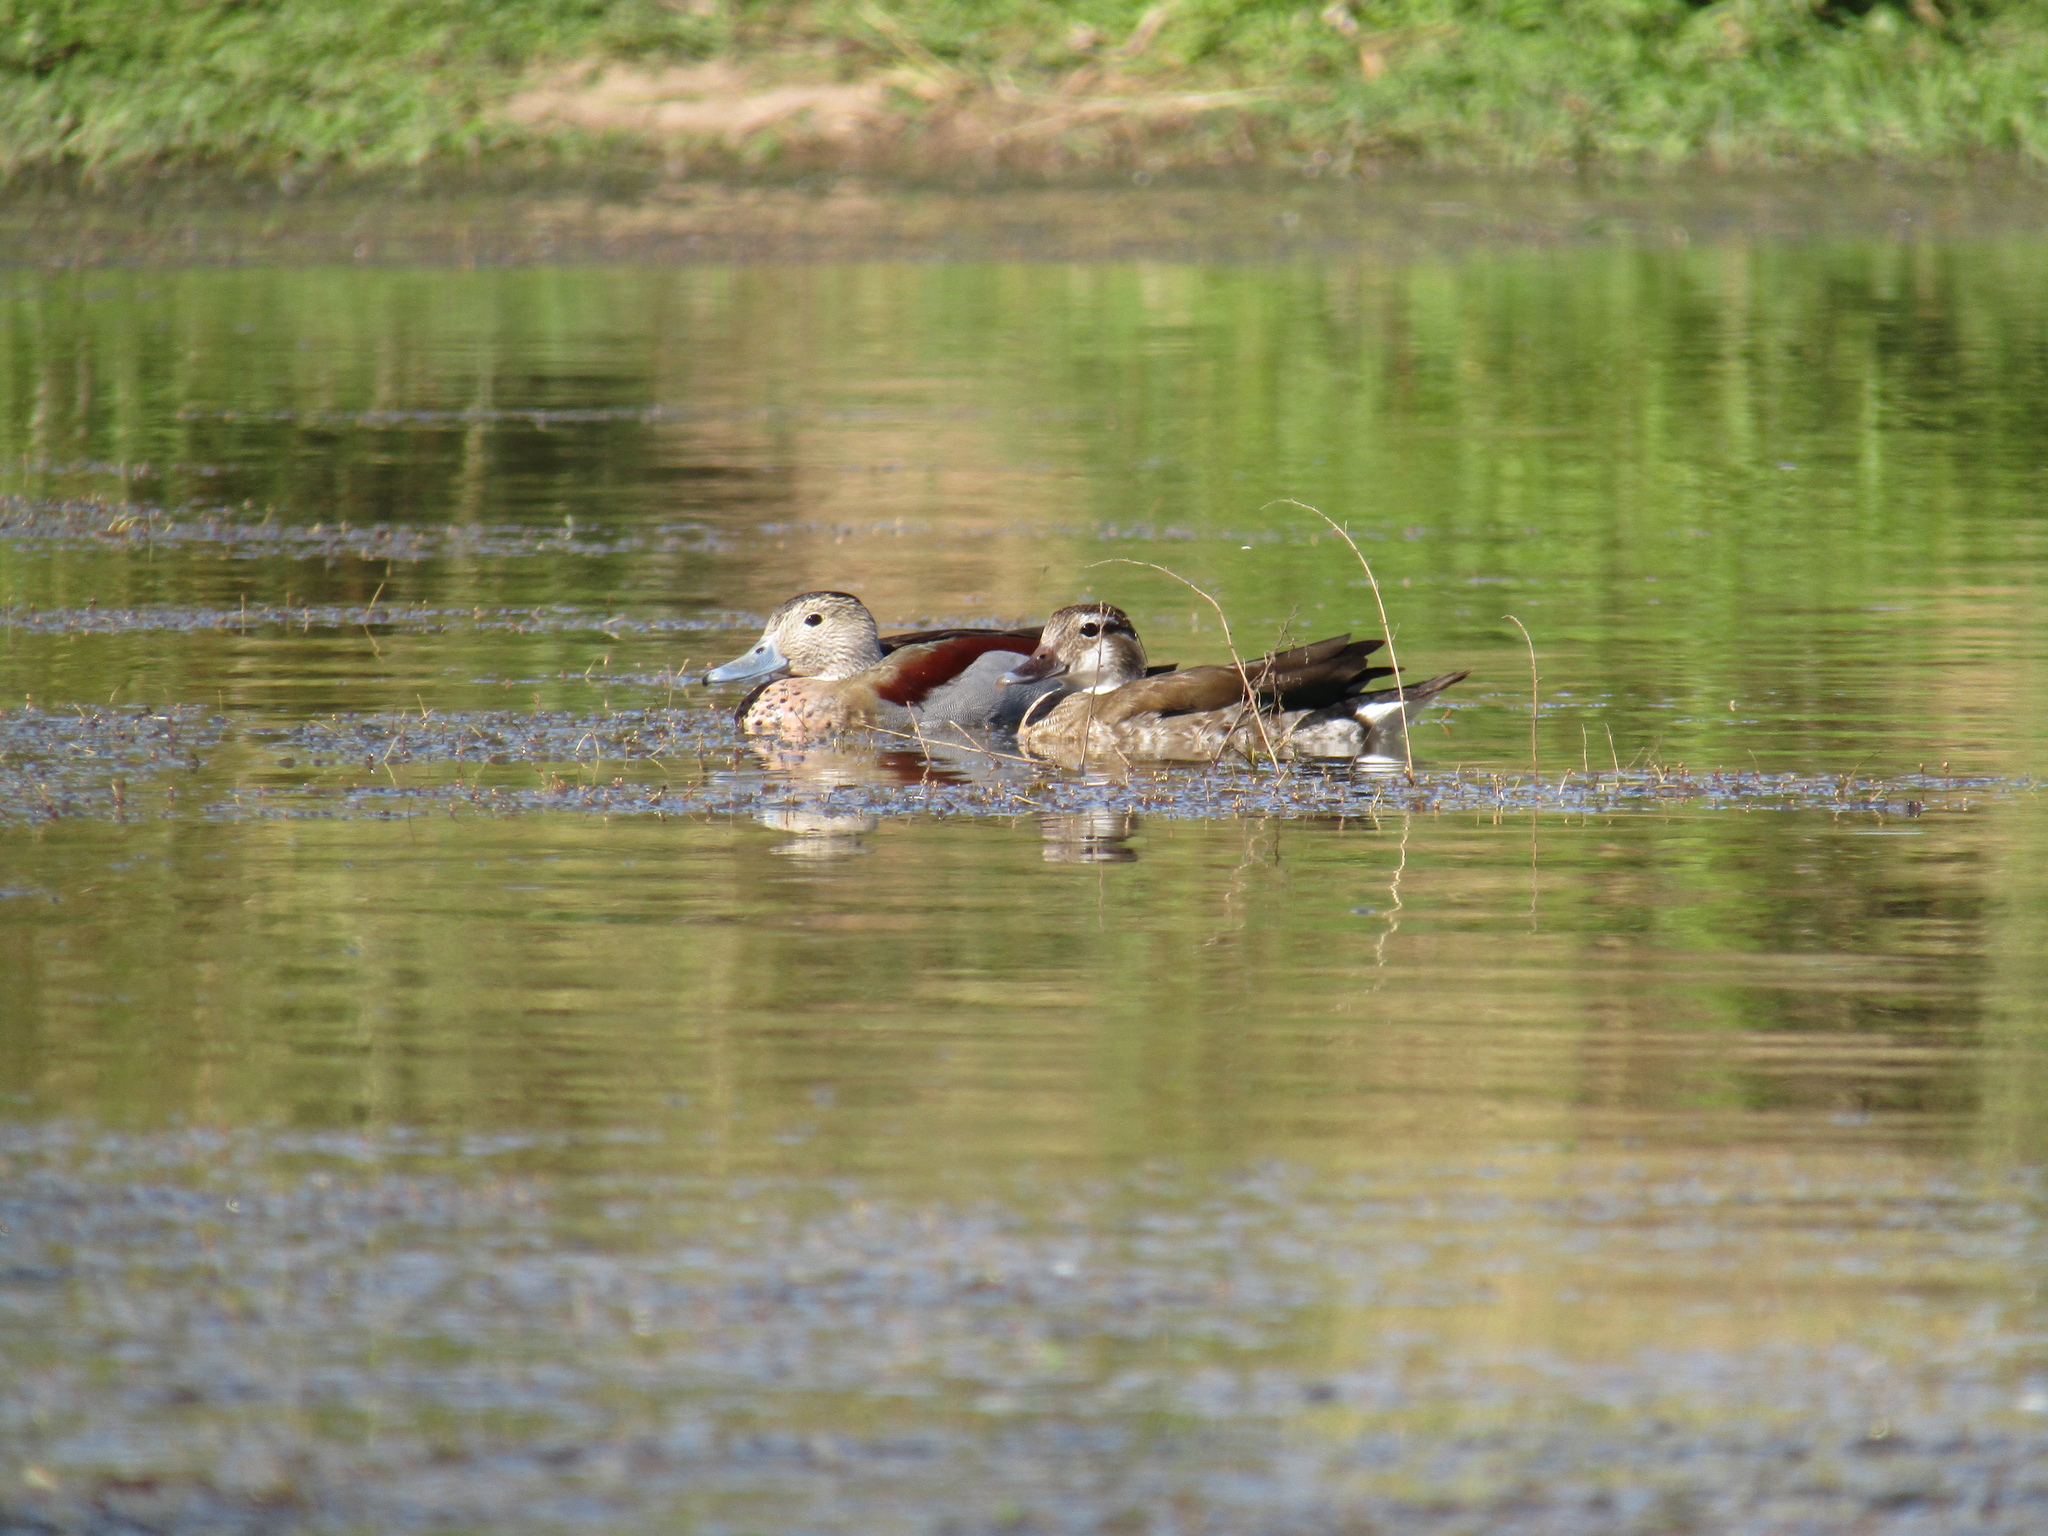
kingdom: Animalia
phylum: Chordata
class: Aves
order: Anseriformes
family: Anatidae
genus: Callonetta
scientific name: Callonetta leucophrys
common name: Ringed teal
